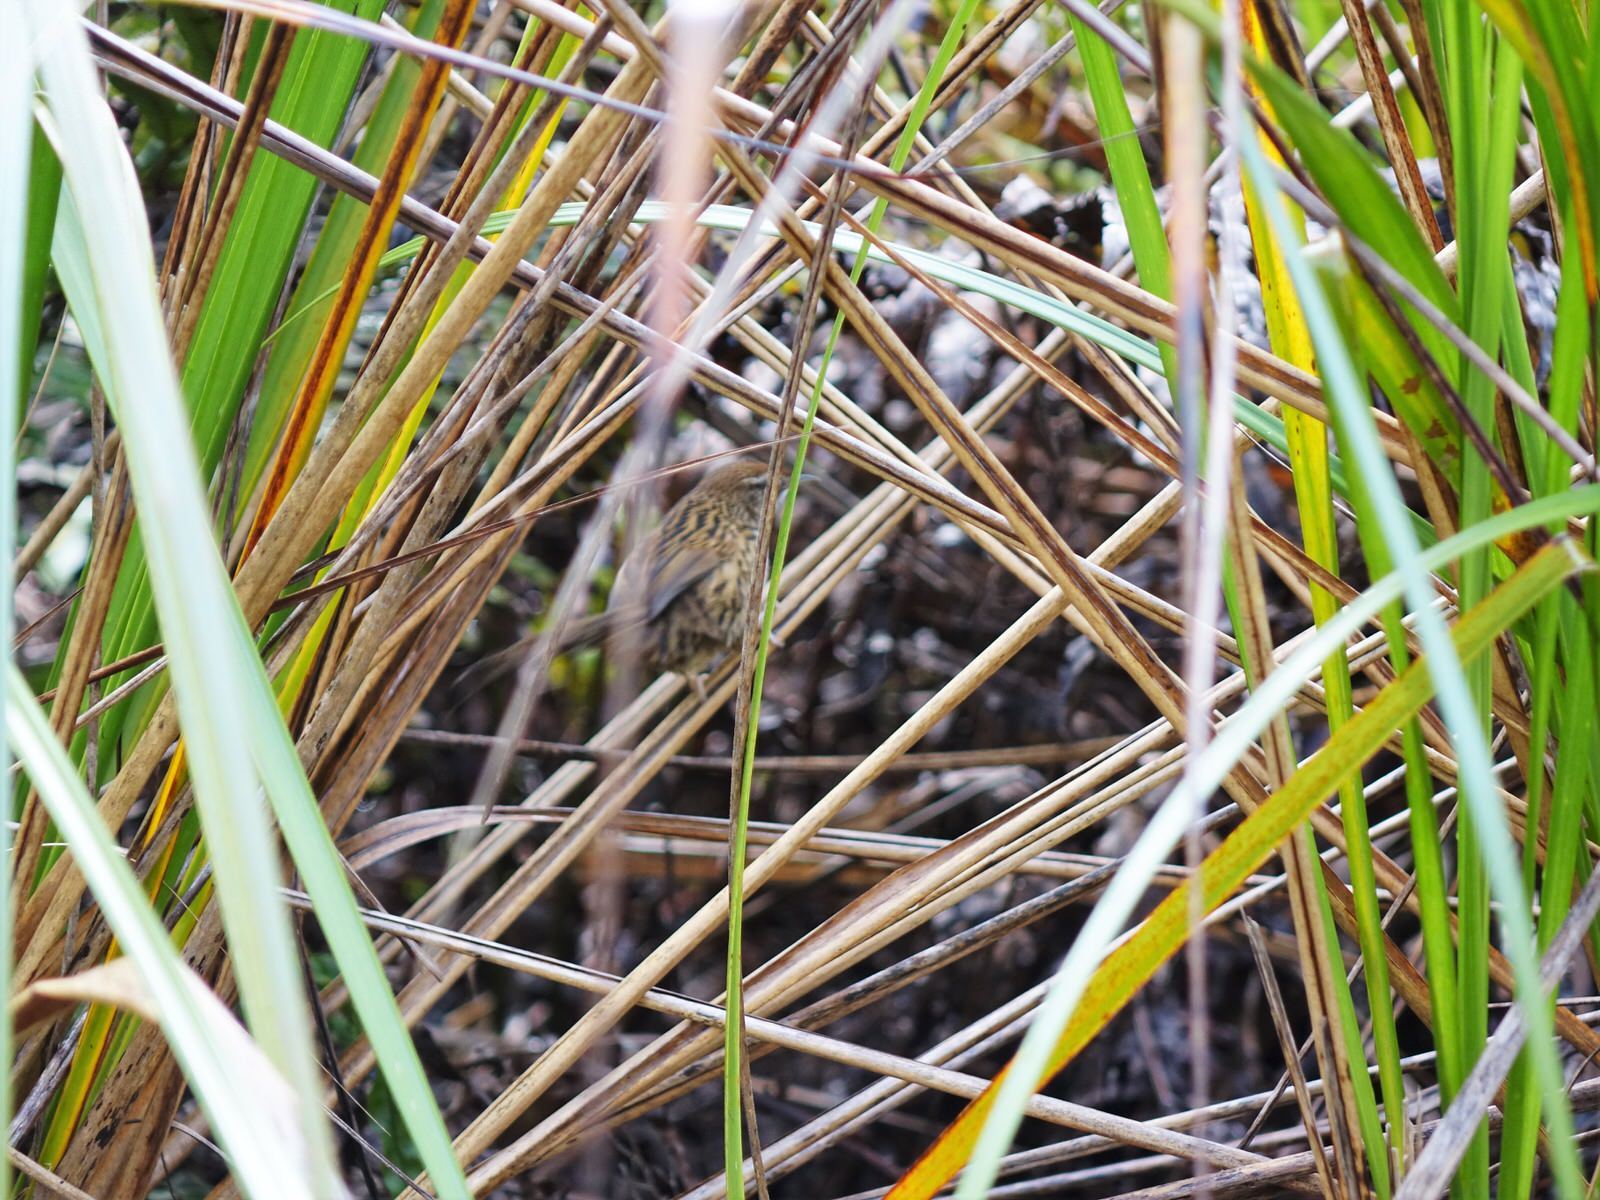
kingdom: Animalia
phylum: Chordata
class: Aves
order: Passeriformes
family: Locustellidae
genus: Megalurus
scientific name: Megalurus punctatus
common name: New zealand fernbird
